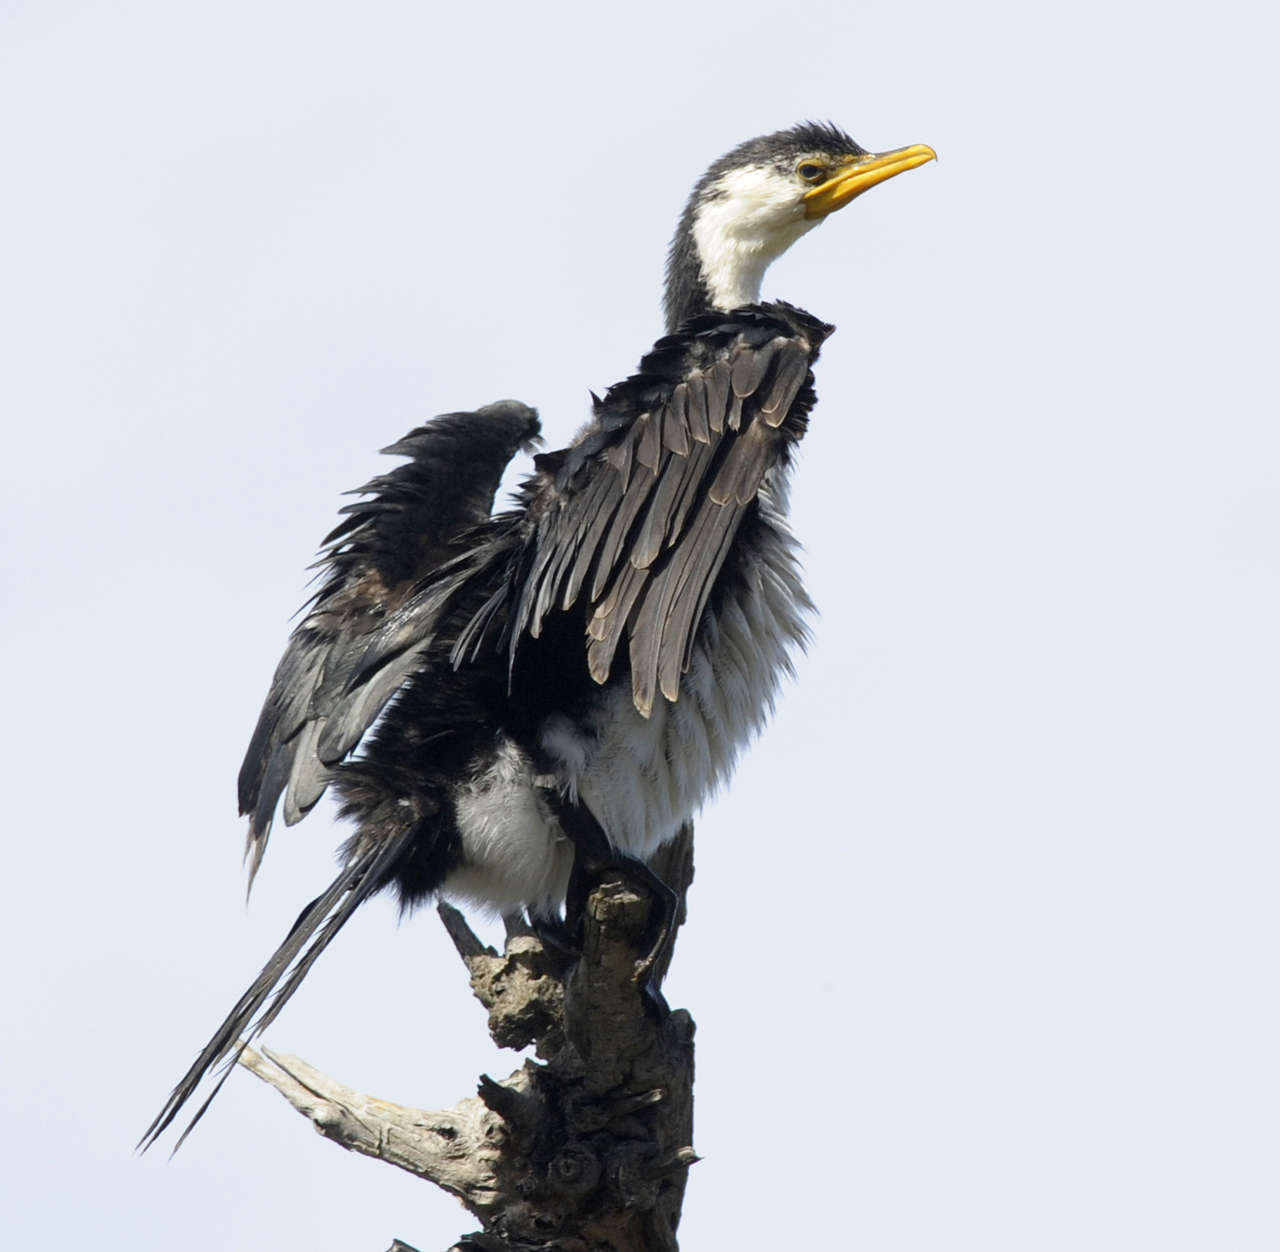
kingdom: Animalia
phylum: Chordata
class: Aves
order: Suliformes
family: Phalacrocoracidae
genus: Phalacrocorax
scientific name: Phalacrocorax varius
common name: Pied cormorant
